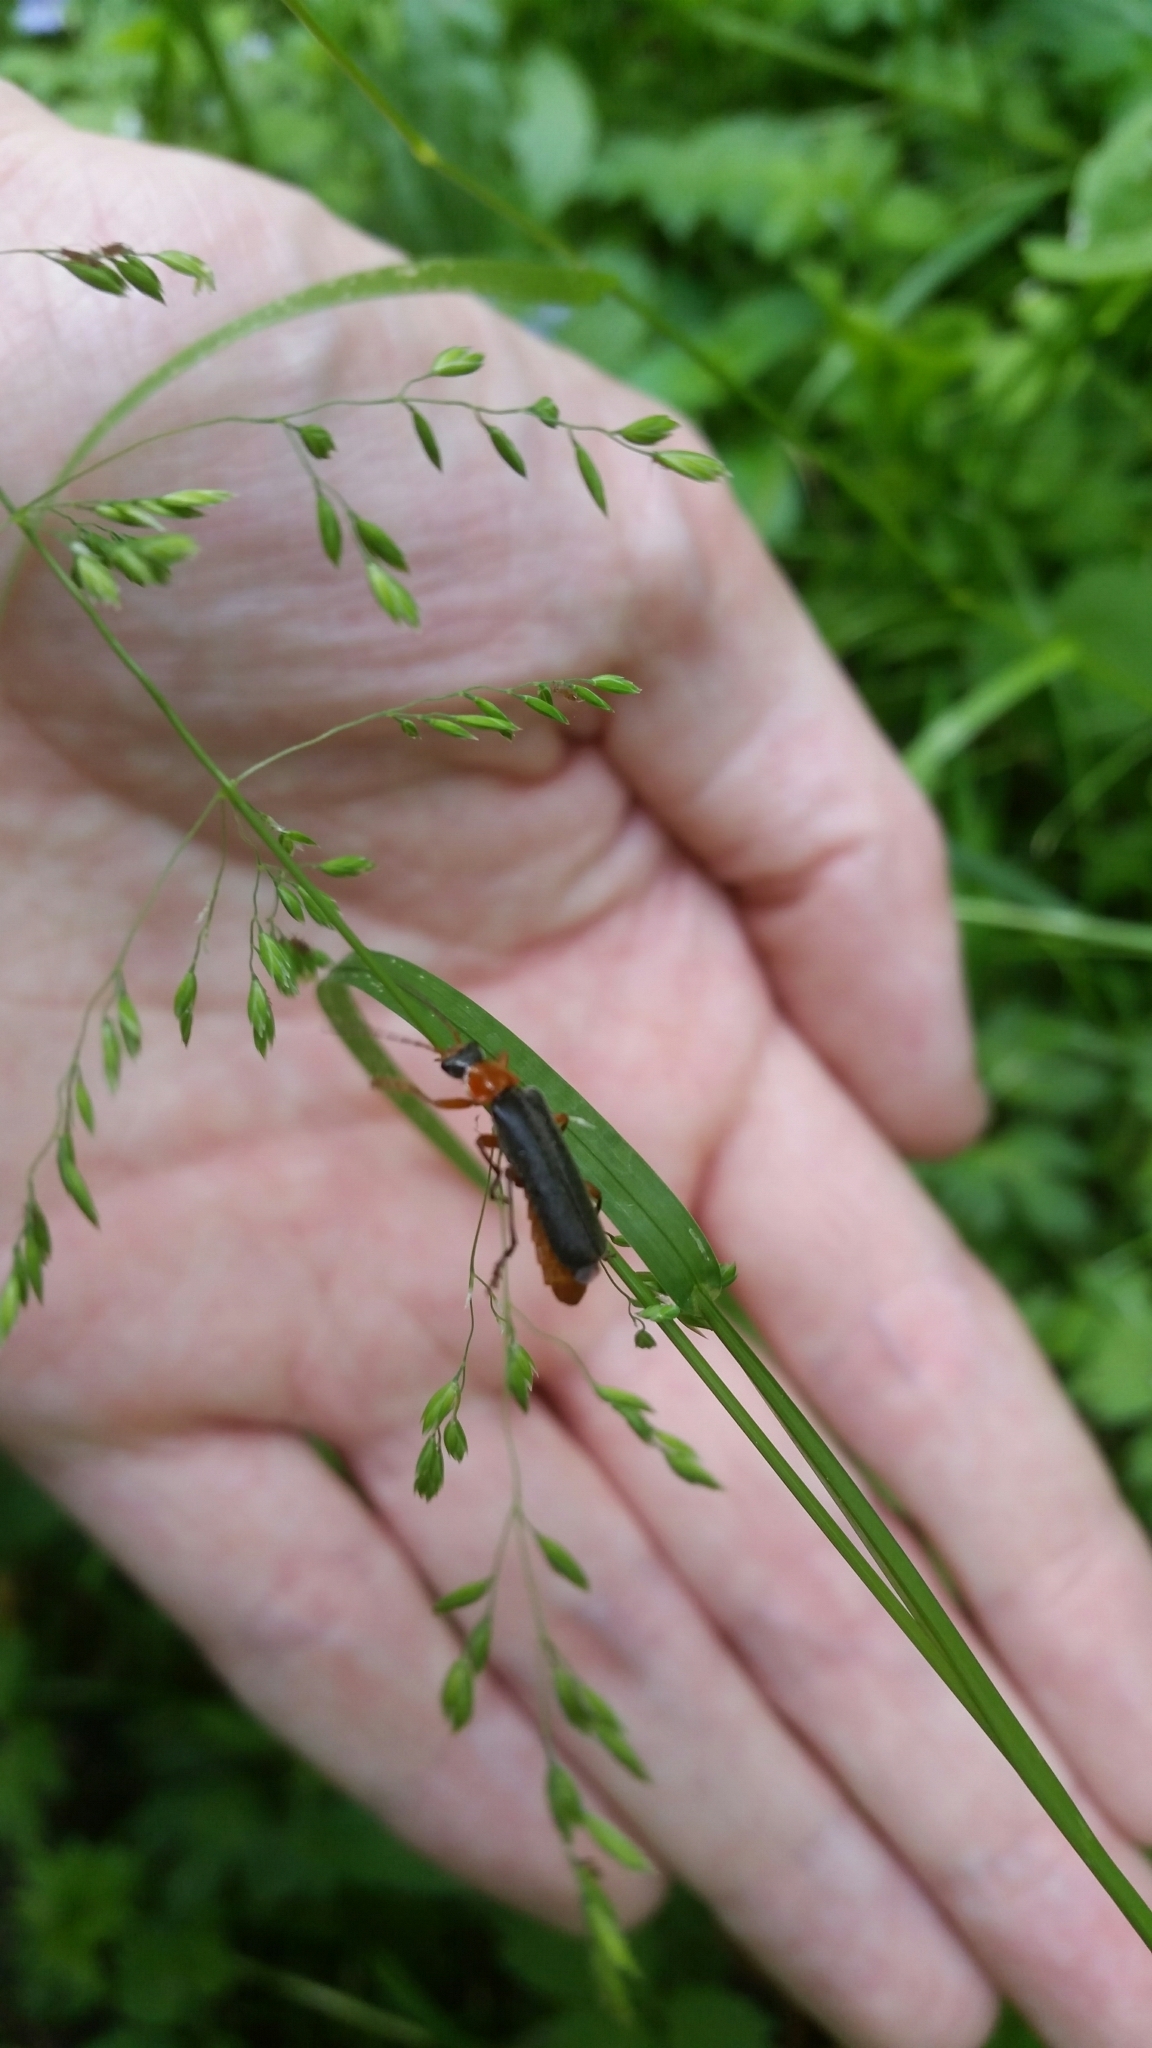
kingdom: Animalia
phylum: Arthropoda
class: Insecta
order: Coleoptera
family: Cantharidae
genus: Cantharis
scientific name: Cantharis pellucida
